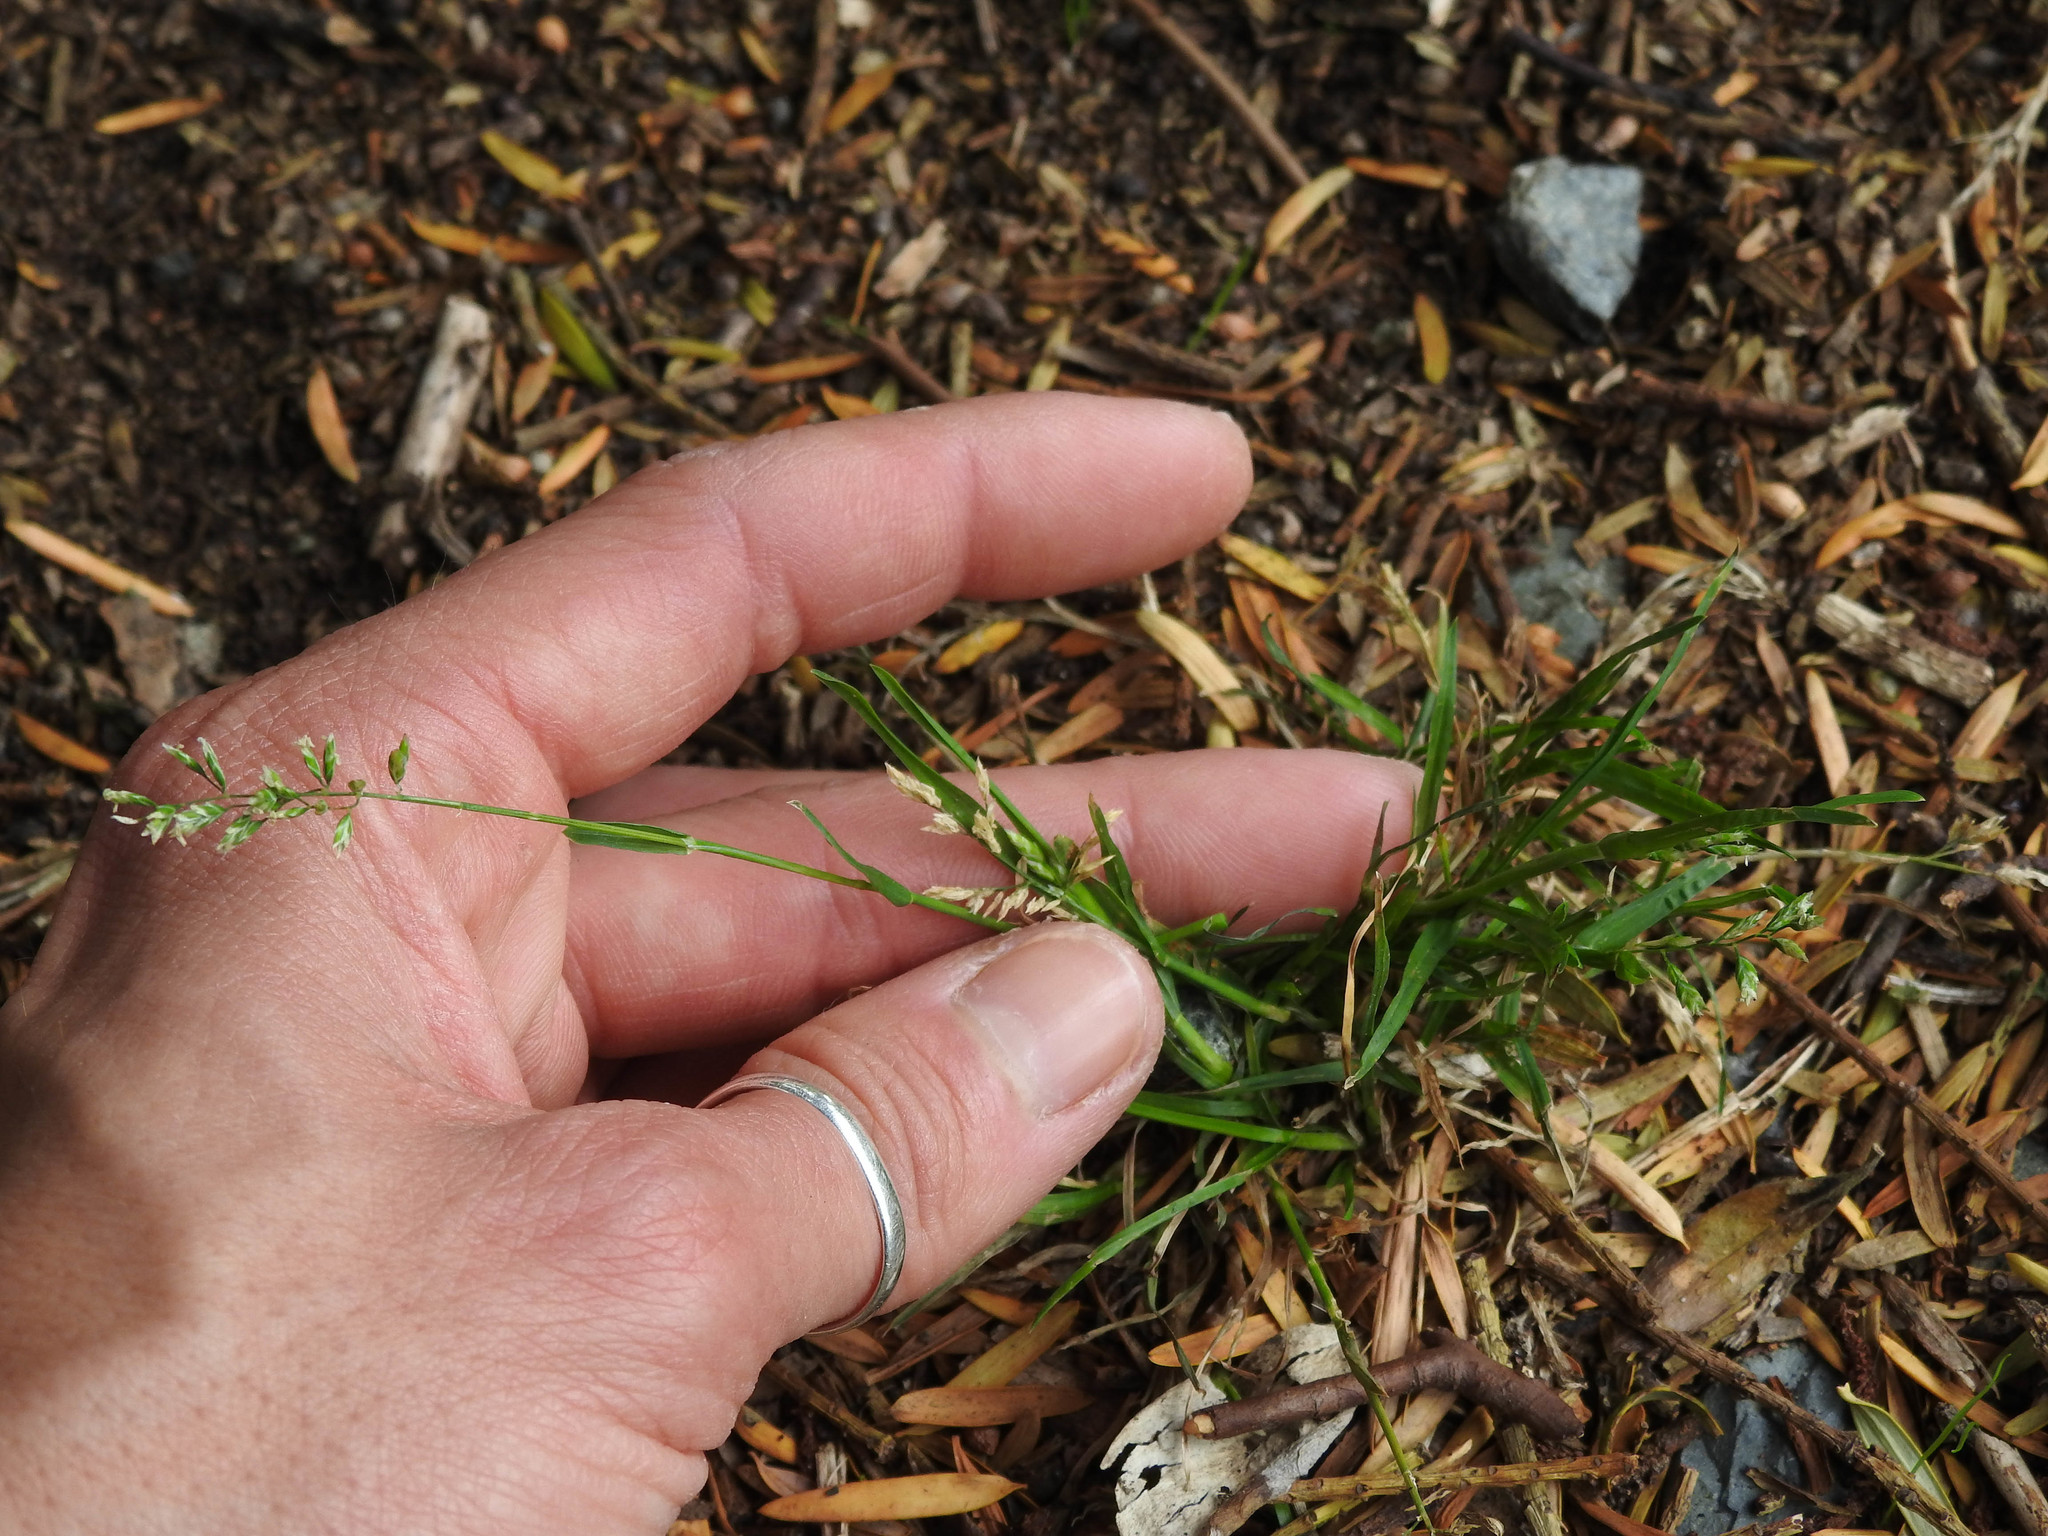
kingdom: Plantae
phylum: Tracheophyta
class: Liliopsida
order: Poales
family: Poaceae
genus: Poa
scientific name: Poa annua
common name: Annual bluegrass
